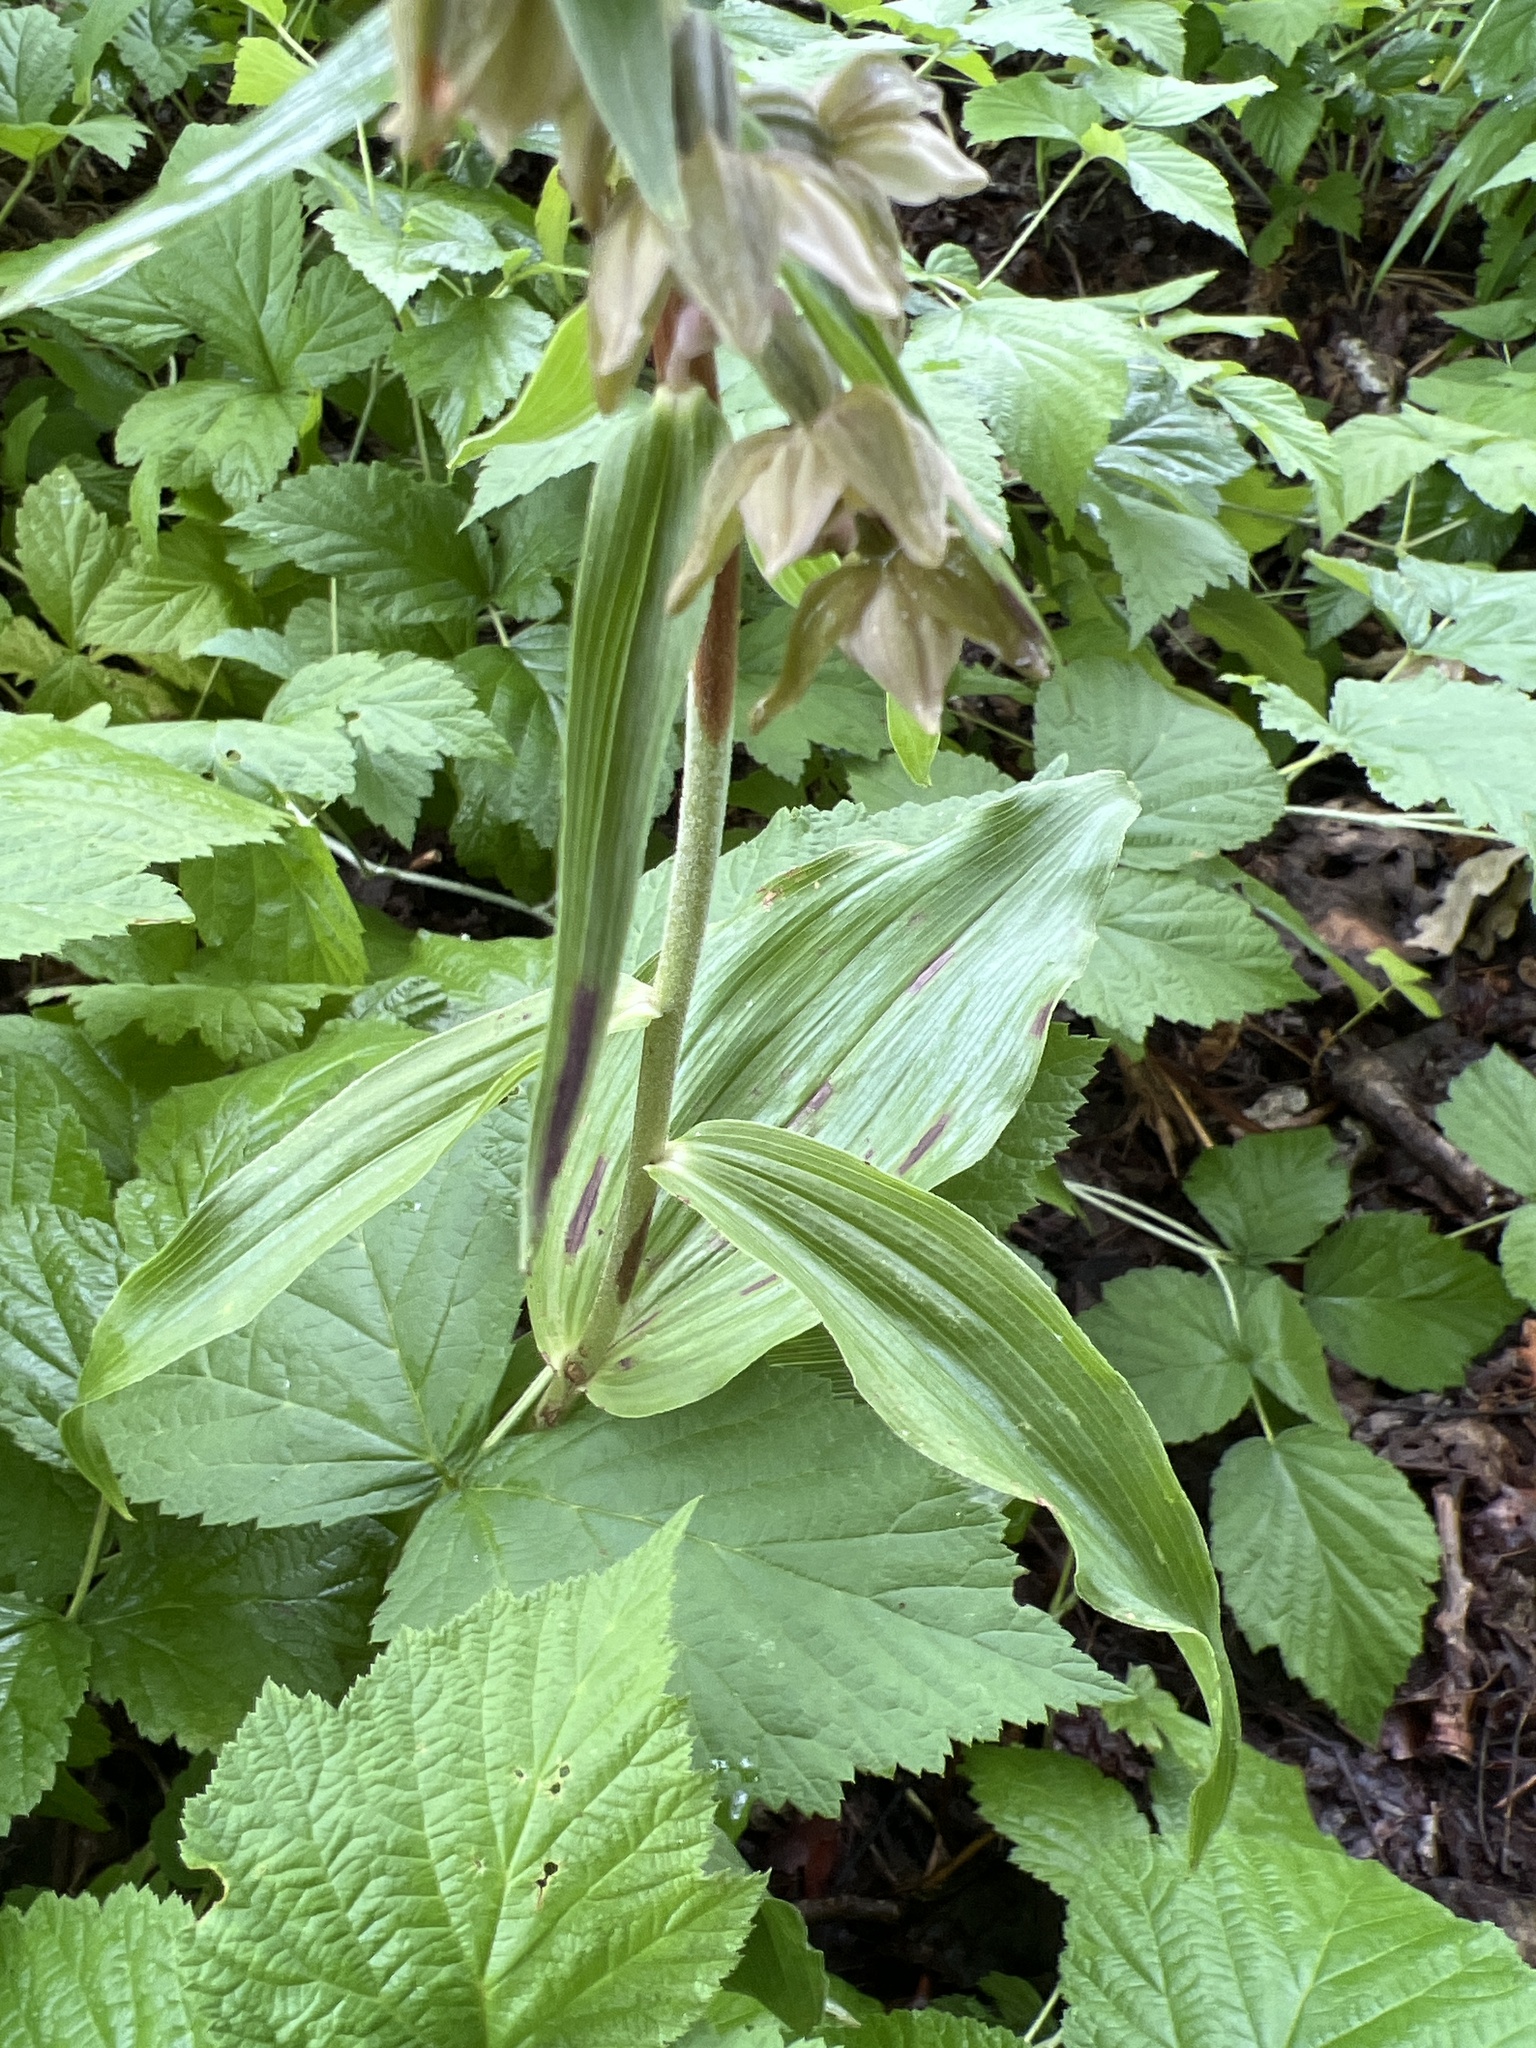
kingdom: Plantae
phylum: Tracheophyta
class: Liliopsida
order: Asparagales
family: Orchidaceae
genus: Epipactis
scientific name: Epipactis helleborine
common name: Broad-leaved helleborine
